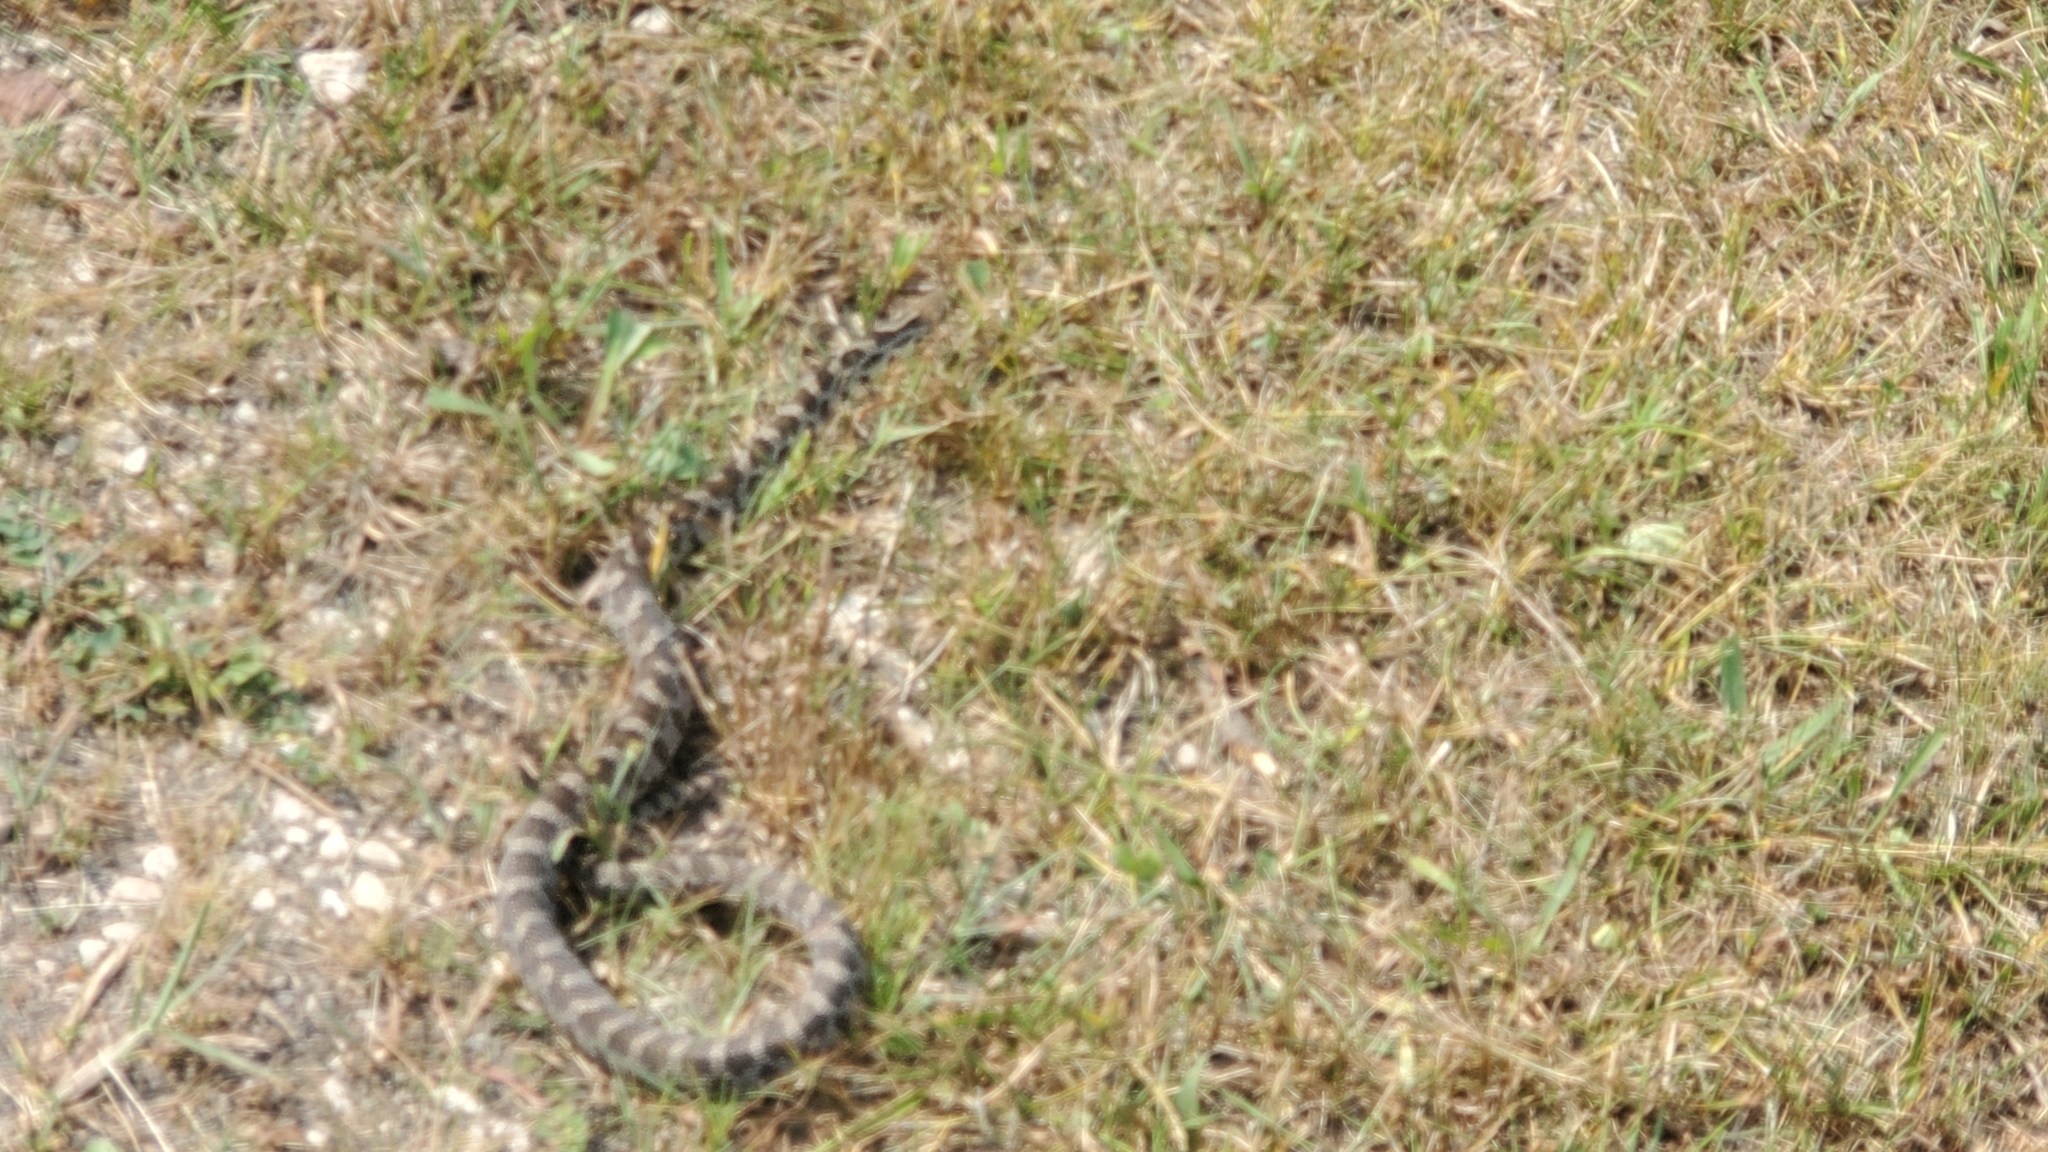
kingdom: Animalia
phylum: Chordata
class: Squamata
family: Colubridae
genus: Pantherophis
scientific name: Pantherophis vulpinus
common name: Eastern fox snake
